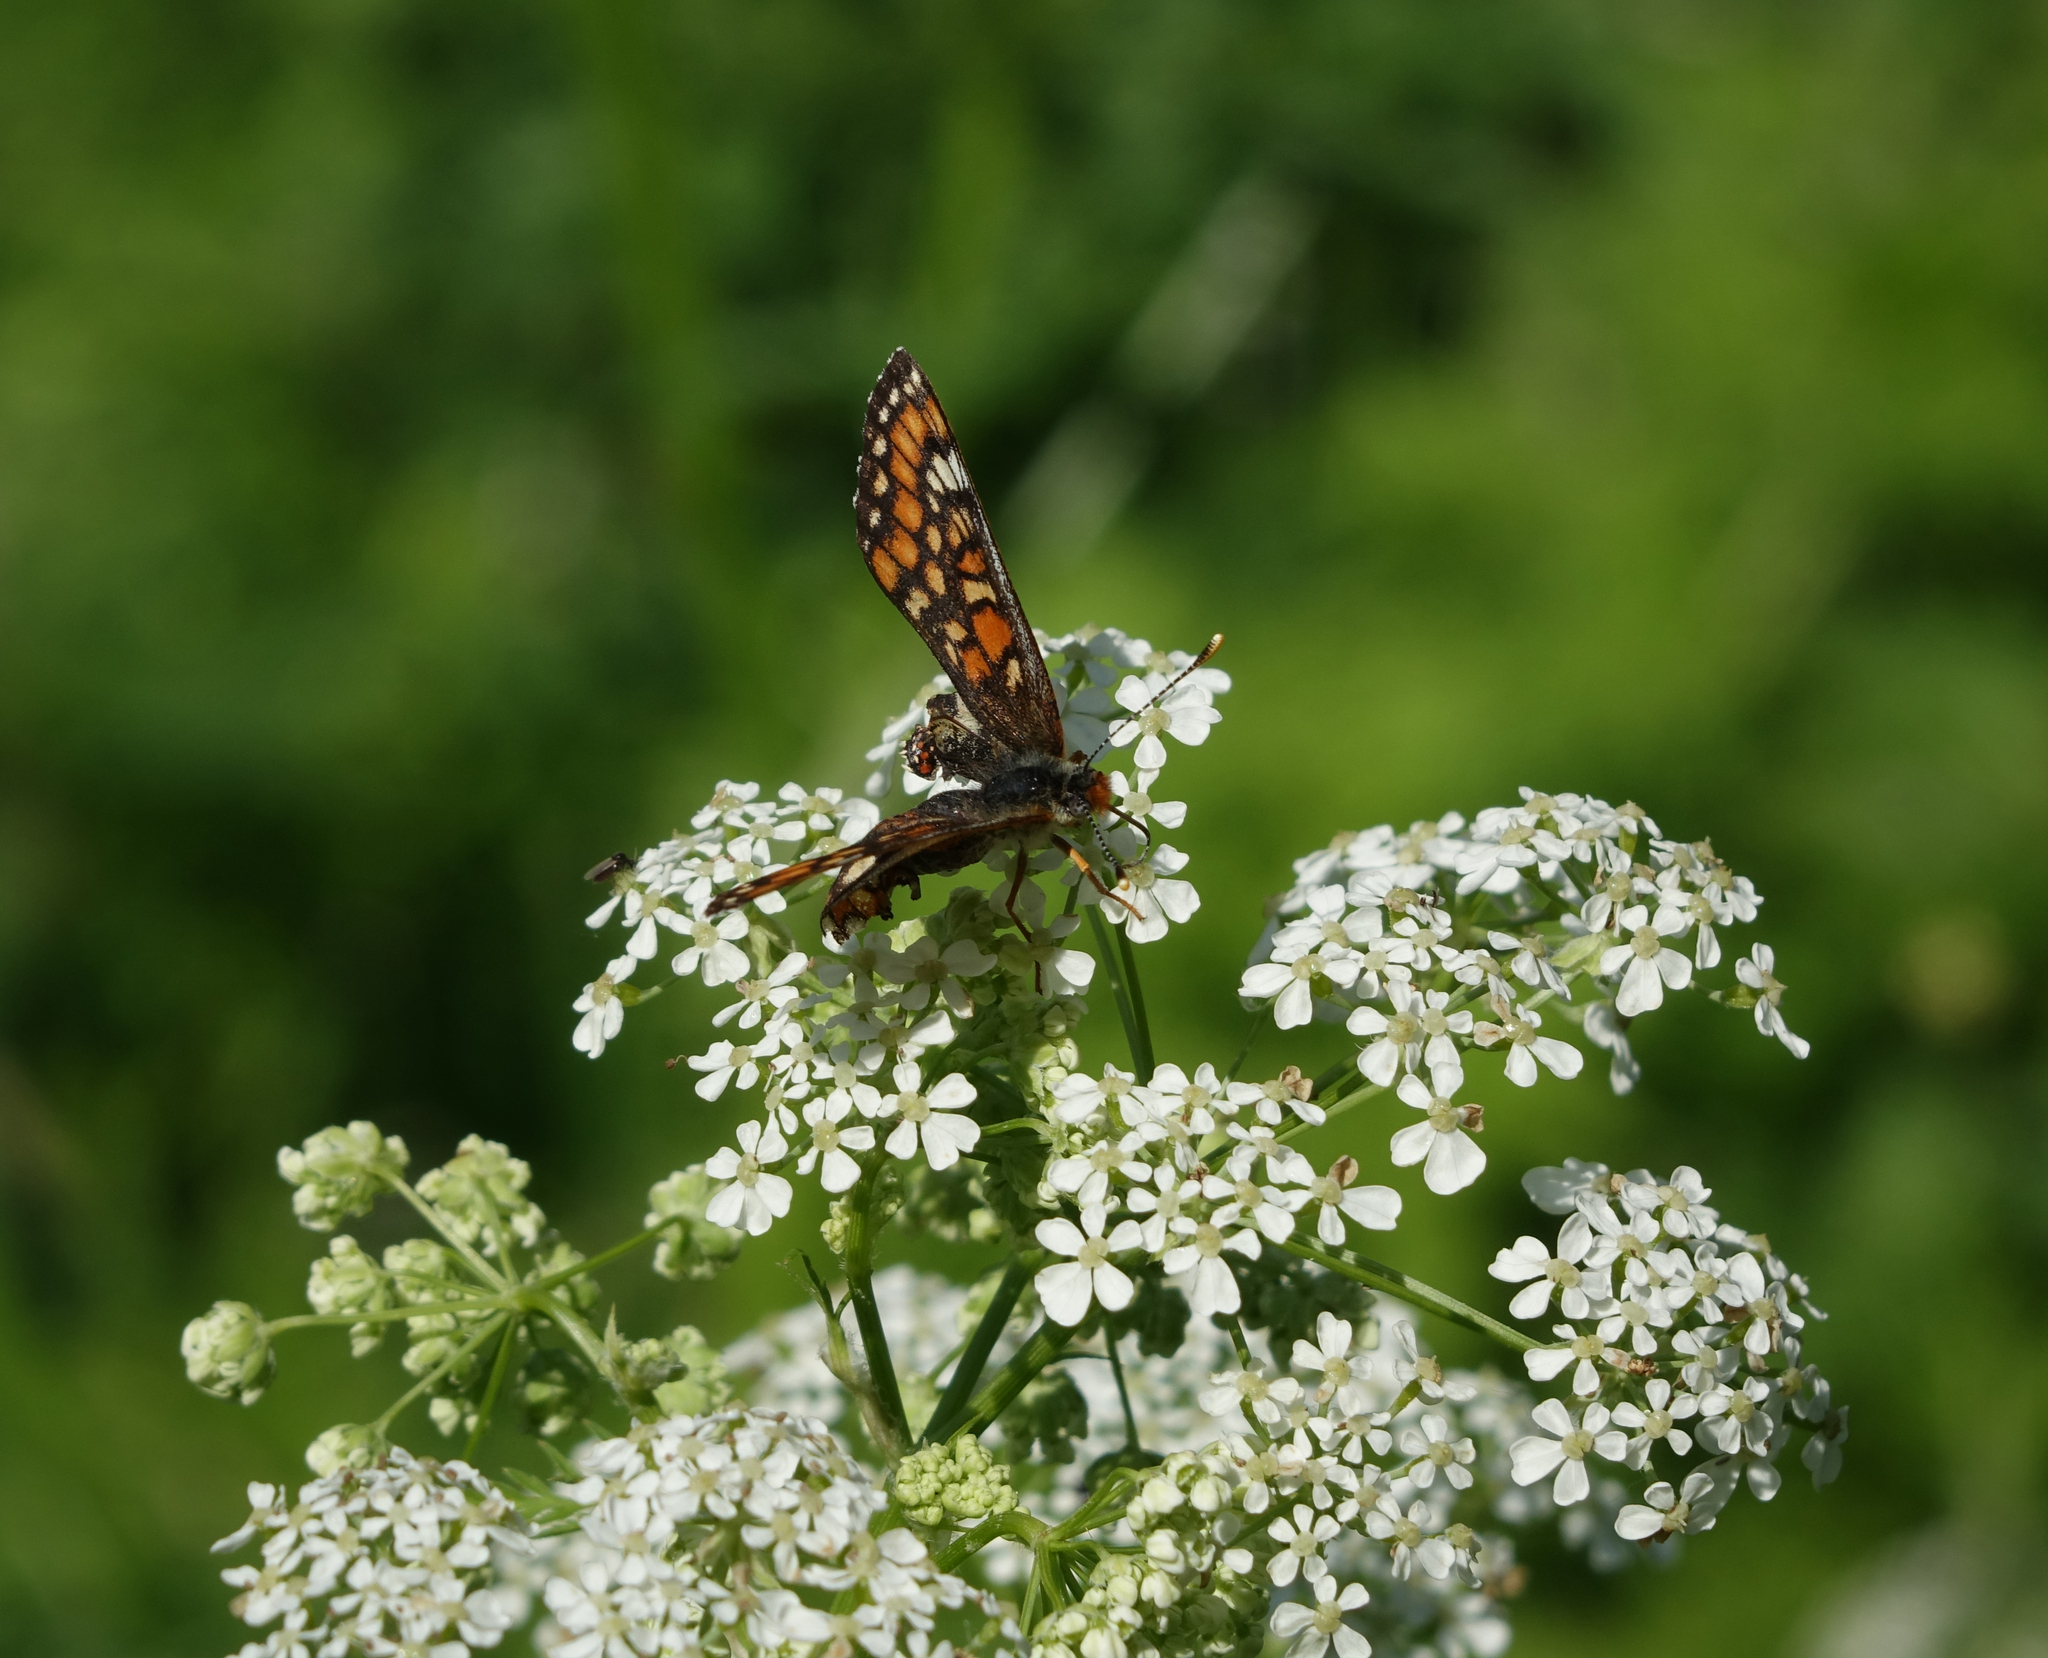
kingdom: Animalia
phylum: Arthropoda
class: Insecta
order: Lepidoptera
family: Nymphalidae
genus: Euphydryas
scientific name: Euphydryas maturna
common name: Scarce fritillary
